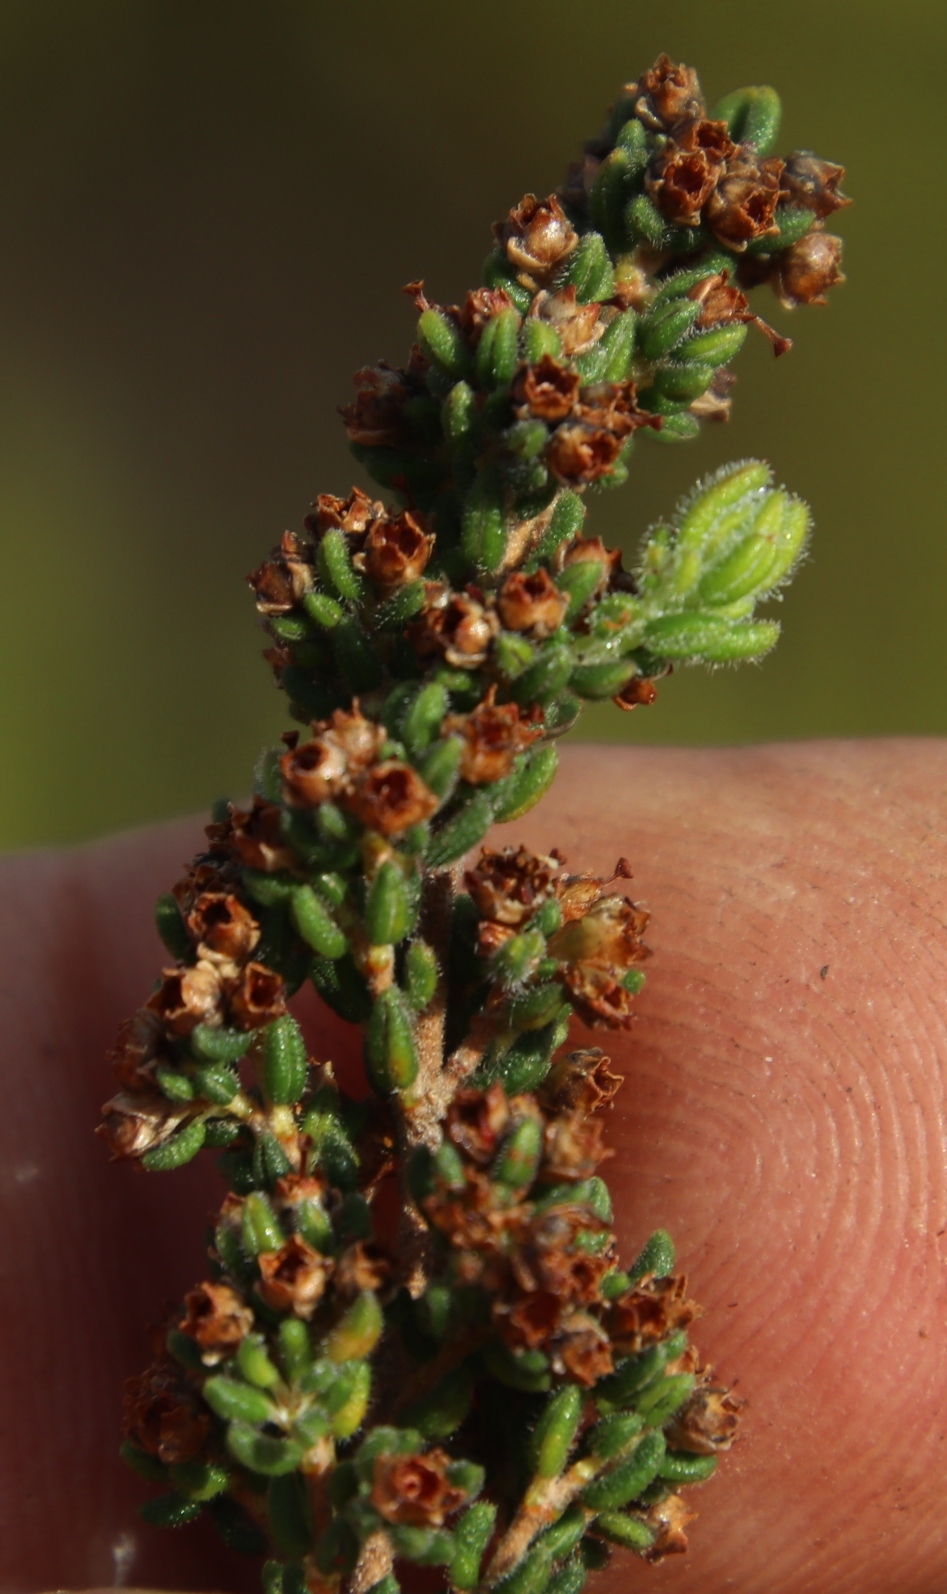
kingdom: Plantae
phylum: Tracheophyta
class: Magnoliopsida
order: Ericales
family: Ericaceae
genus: Erica
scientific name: Erica hispidula
